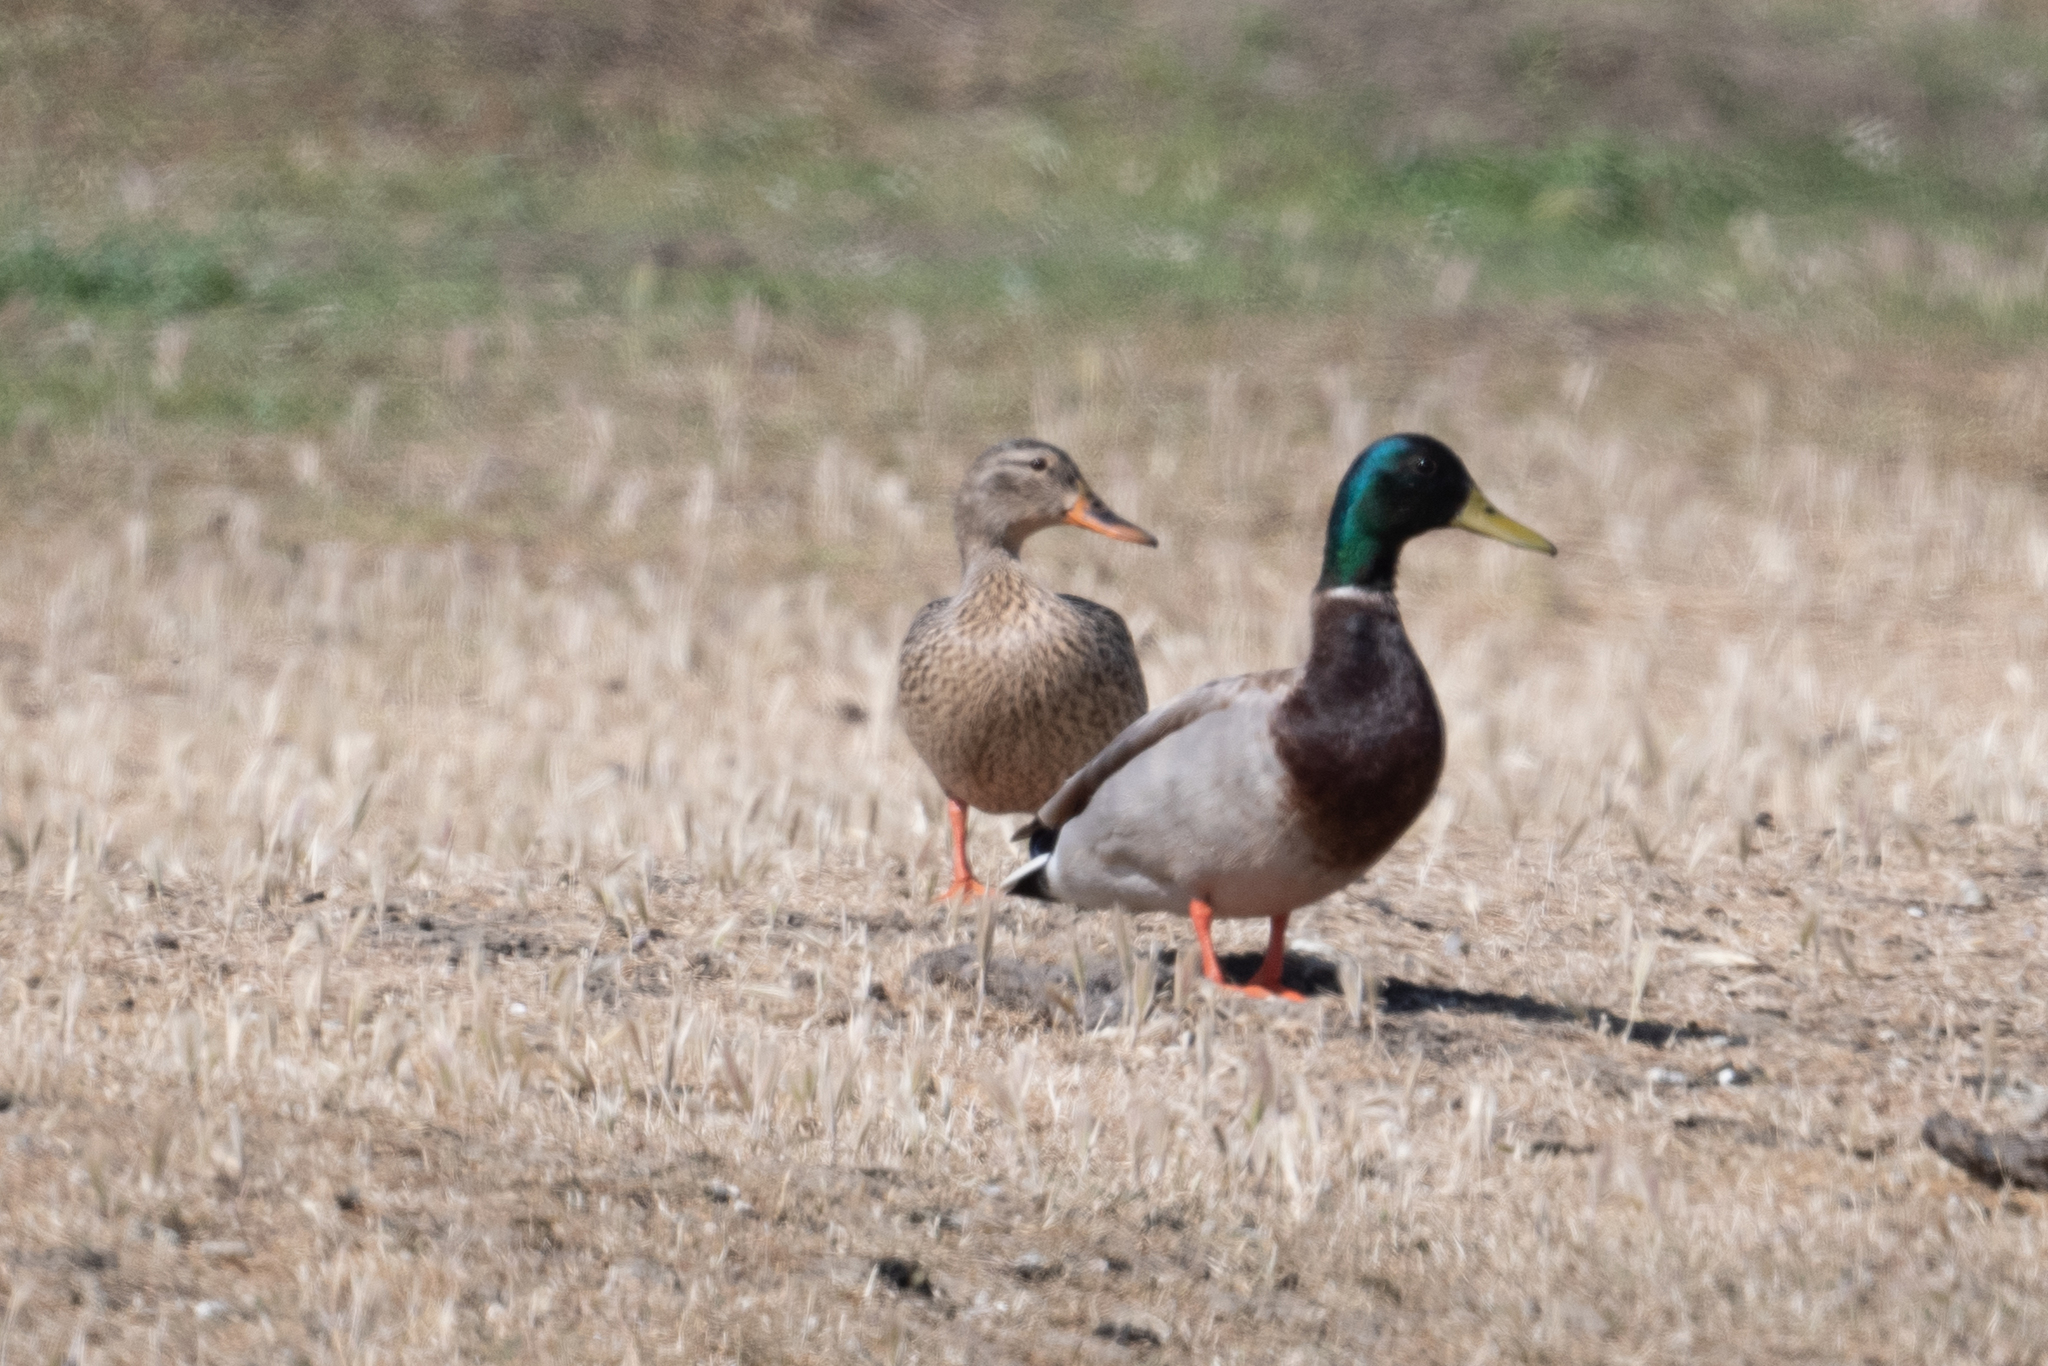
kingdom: Animalia
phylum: Chordata
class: Aves
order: Anseriformes
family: Anatidae
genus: Anas
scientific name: Anas platyrhynchos
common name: Mallard
